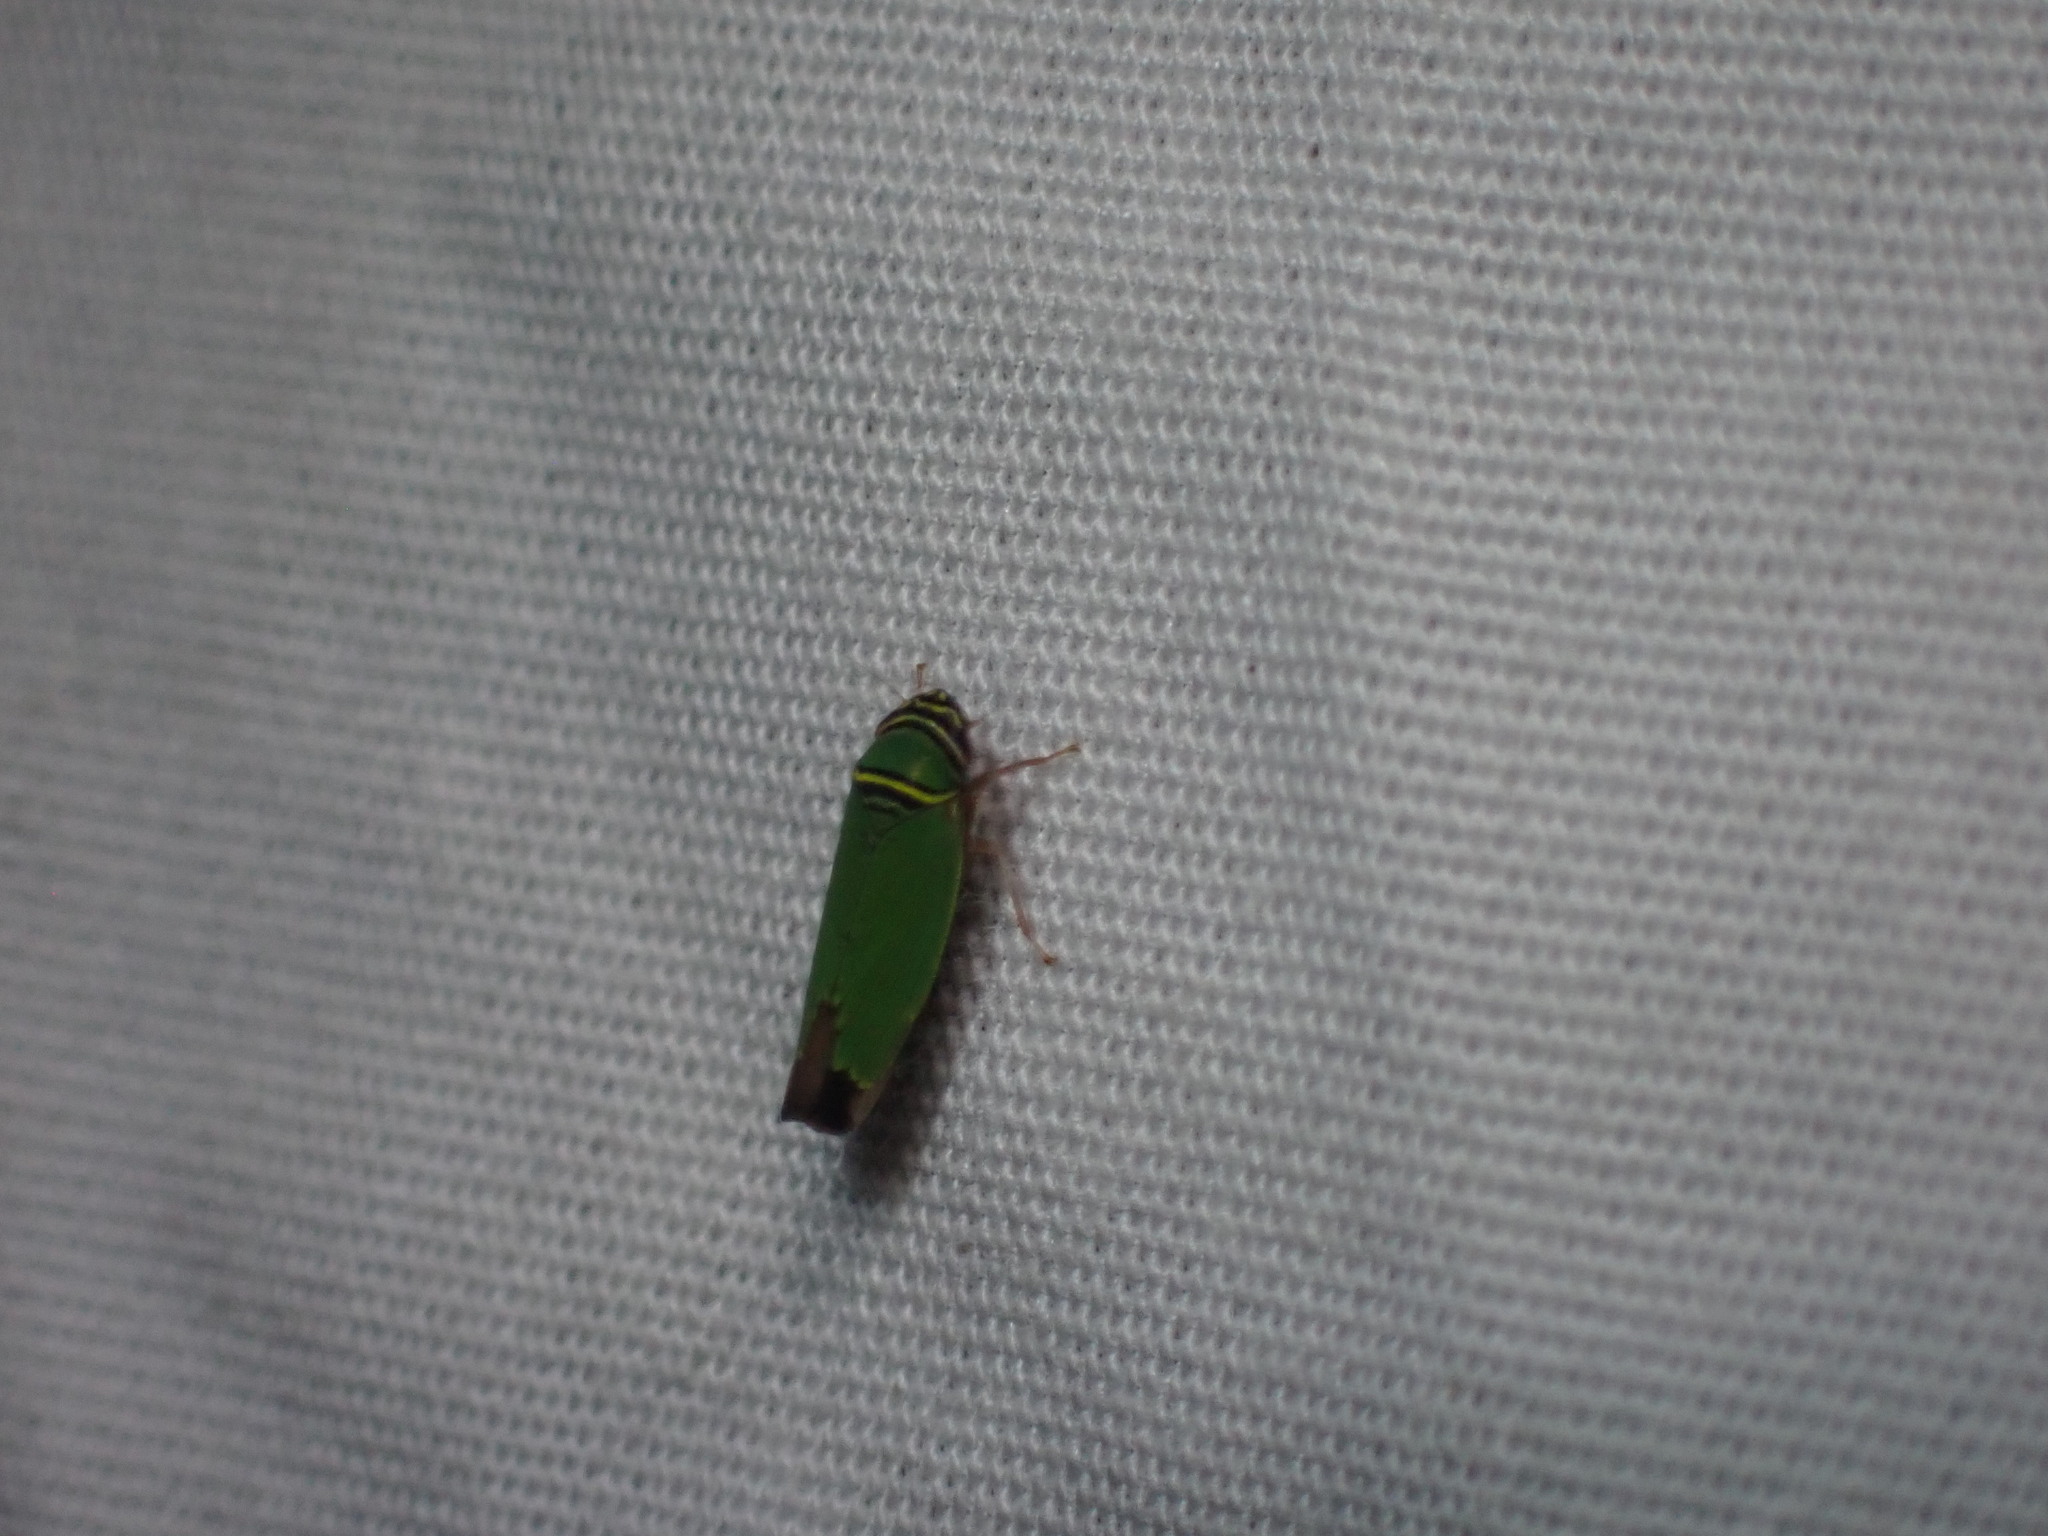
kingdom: Animalia
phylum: Arthropoda
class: Insecta
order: Hemiptera
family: Cicadellidae
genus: Tylozygus
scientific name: Tylozygus geometricus
